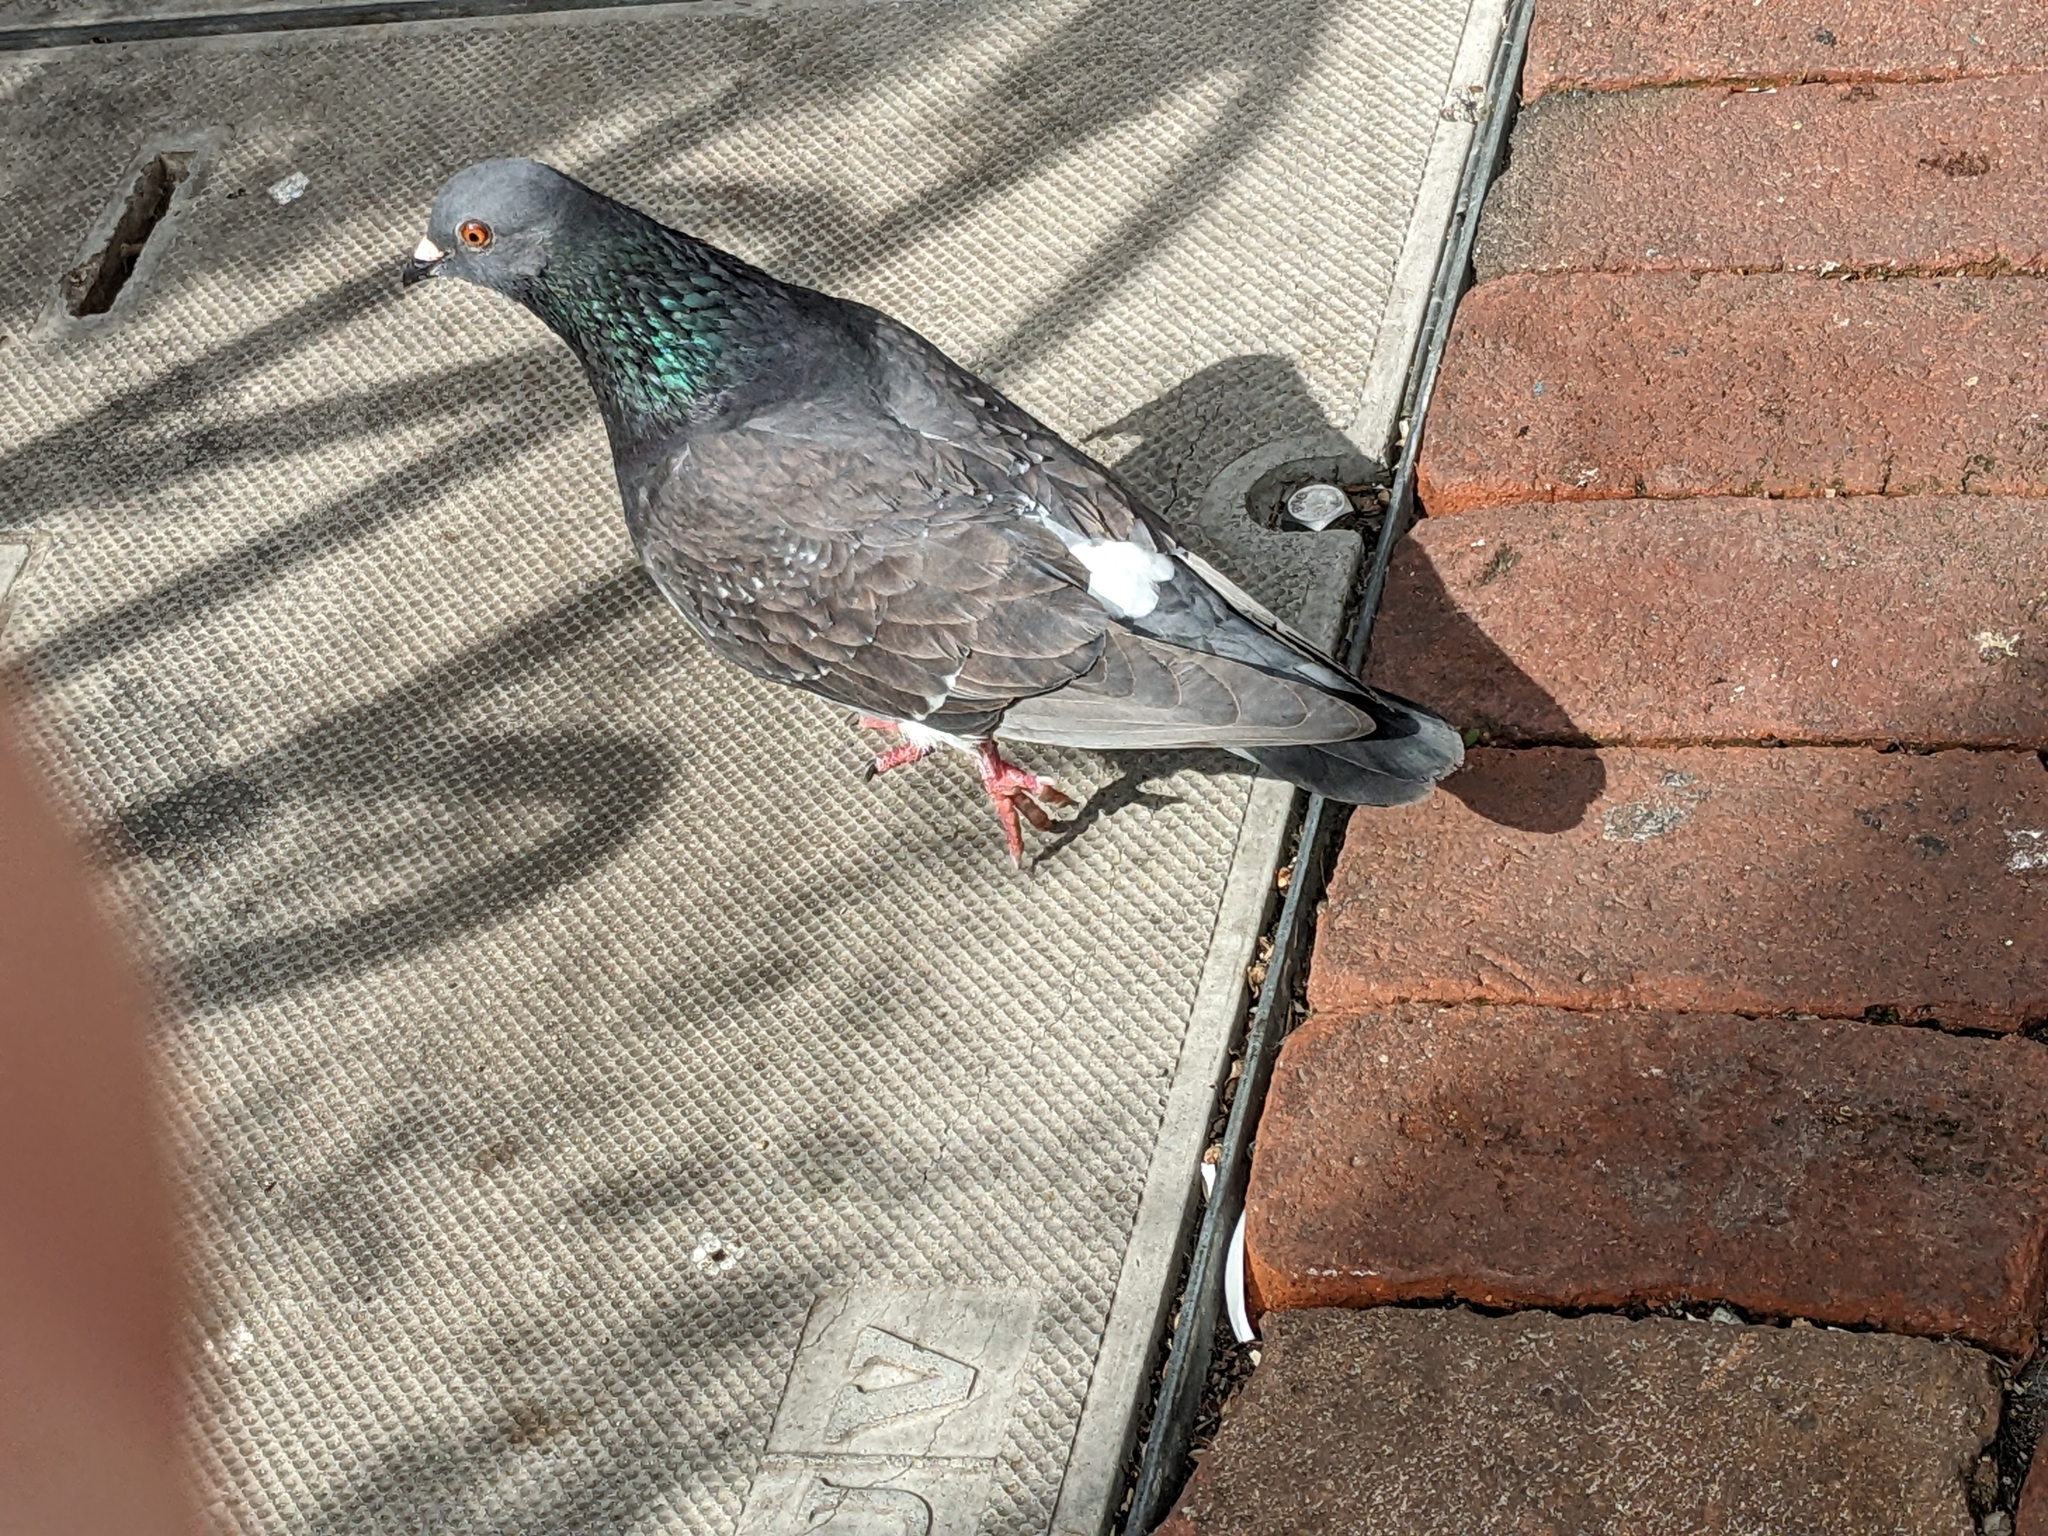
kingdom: Animalia
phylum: Chordata
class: Aves
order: Columbiformes
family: Columbidae
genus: Columba
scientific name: Columba livia
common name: Rock pigeon
